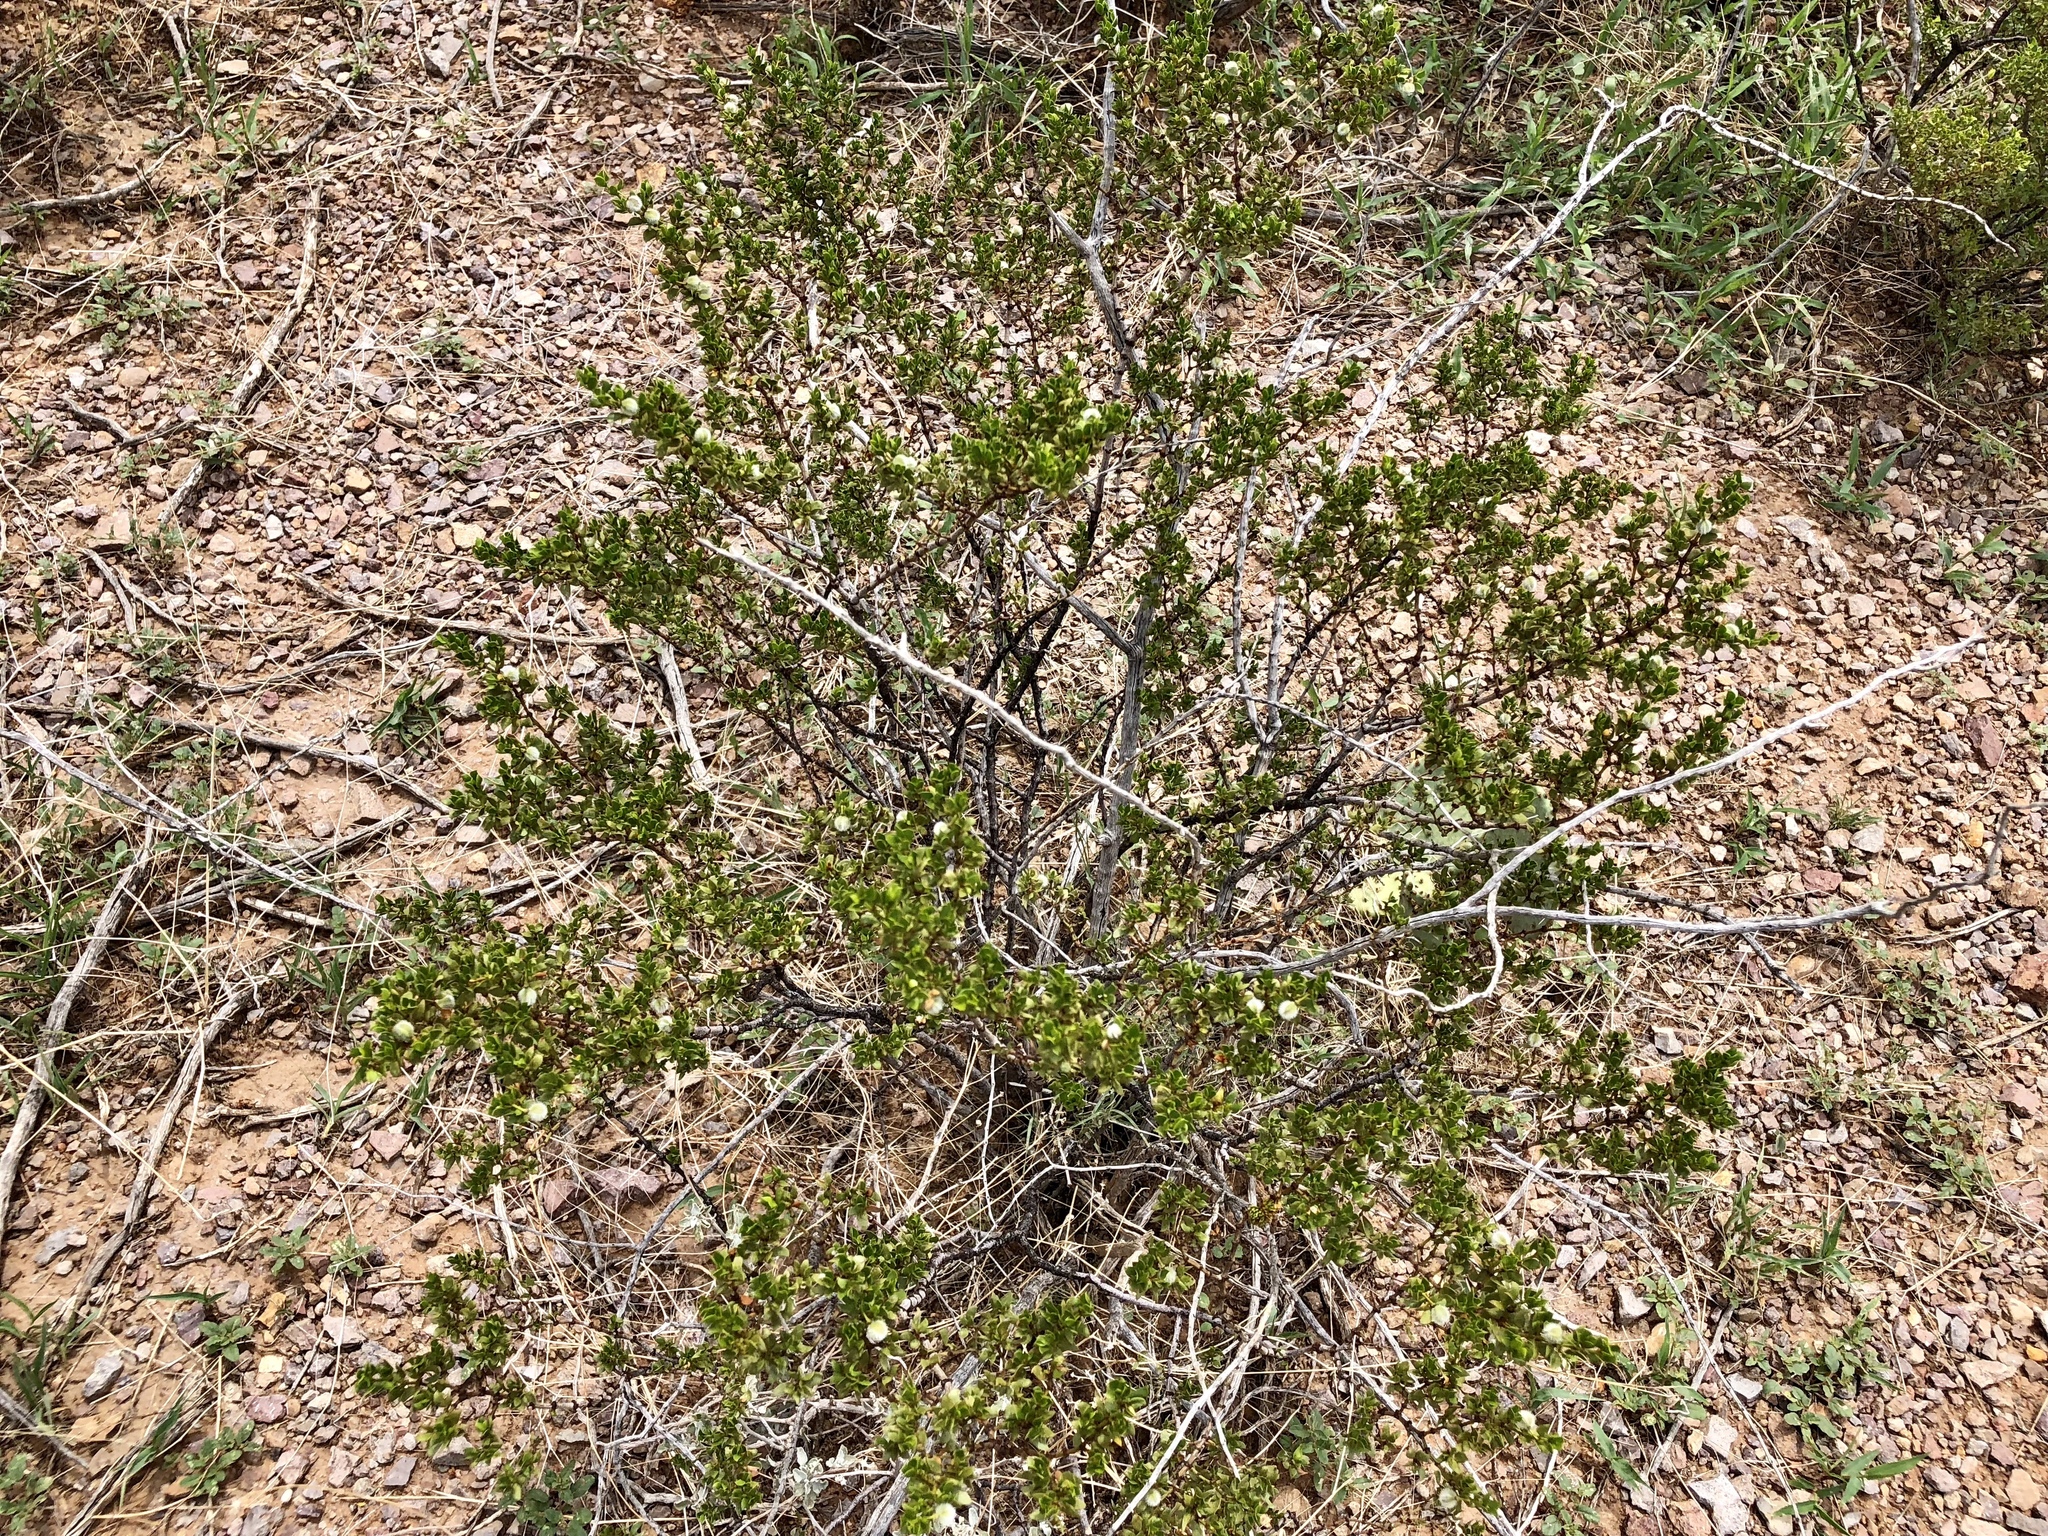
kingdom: Plantae
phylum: Tracheophyta
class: Magnoliopsida
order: Zygophyllales
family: Zygophyllaceae
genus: Larrea
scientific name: Larrea tridentata
